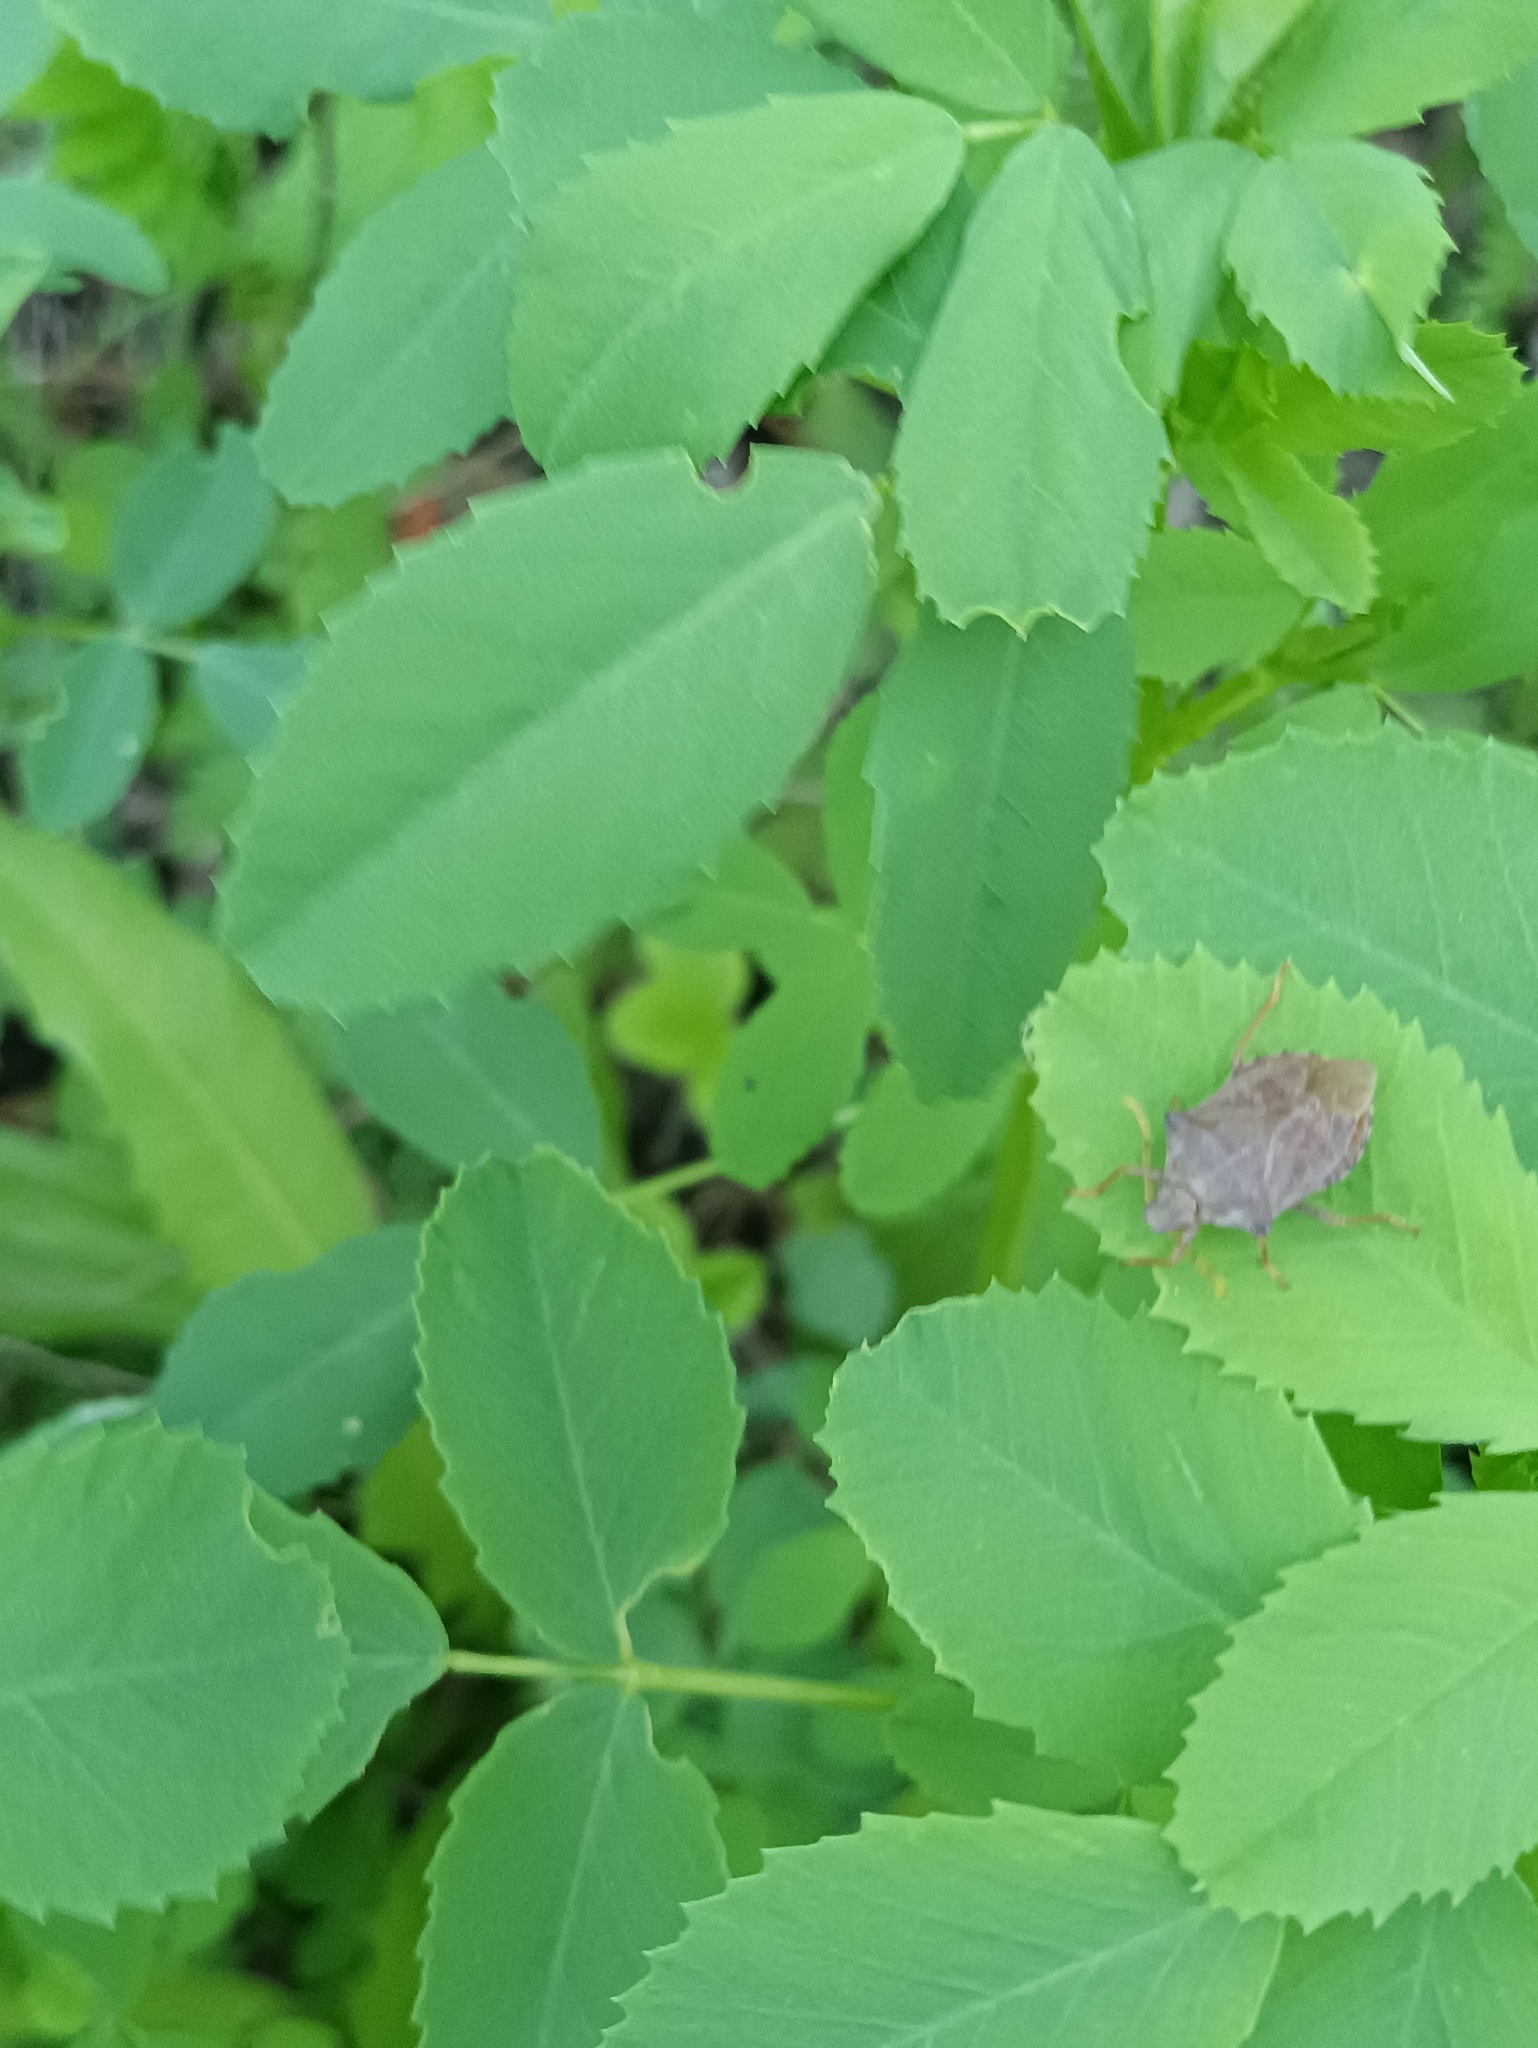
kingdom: Animalia
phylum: Arthropoda
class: Insecta
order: Hemiptera
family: Pentatomidae
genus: Arma
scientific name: Arma custos
